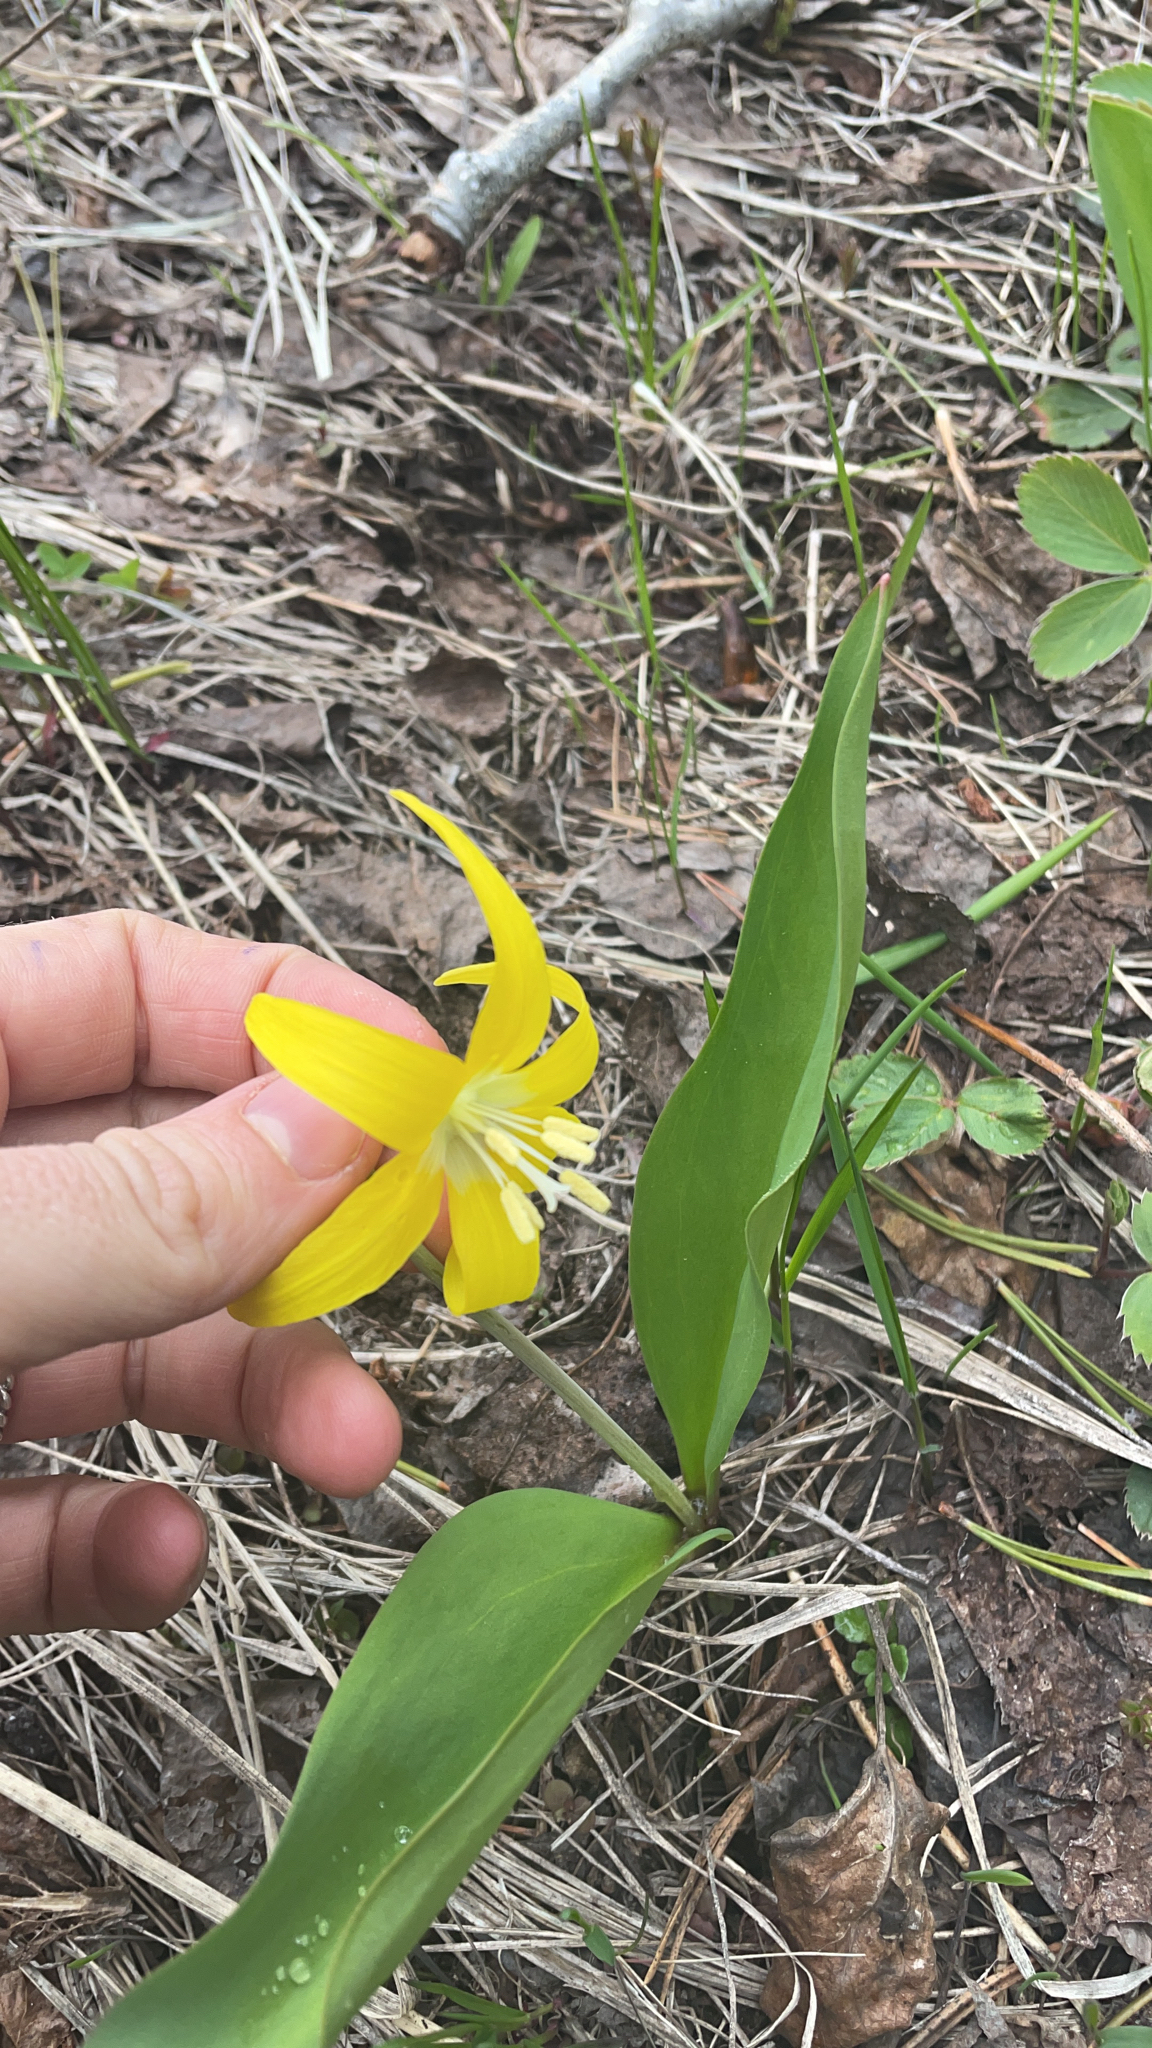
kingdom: Plantae
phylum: Tracheophyta
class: Liliopsida
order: Liliales
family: Liliaceae
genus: Erythronium
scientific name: Erythronium grandiflorum
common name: Avalanche-lily
